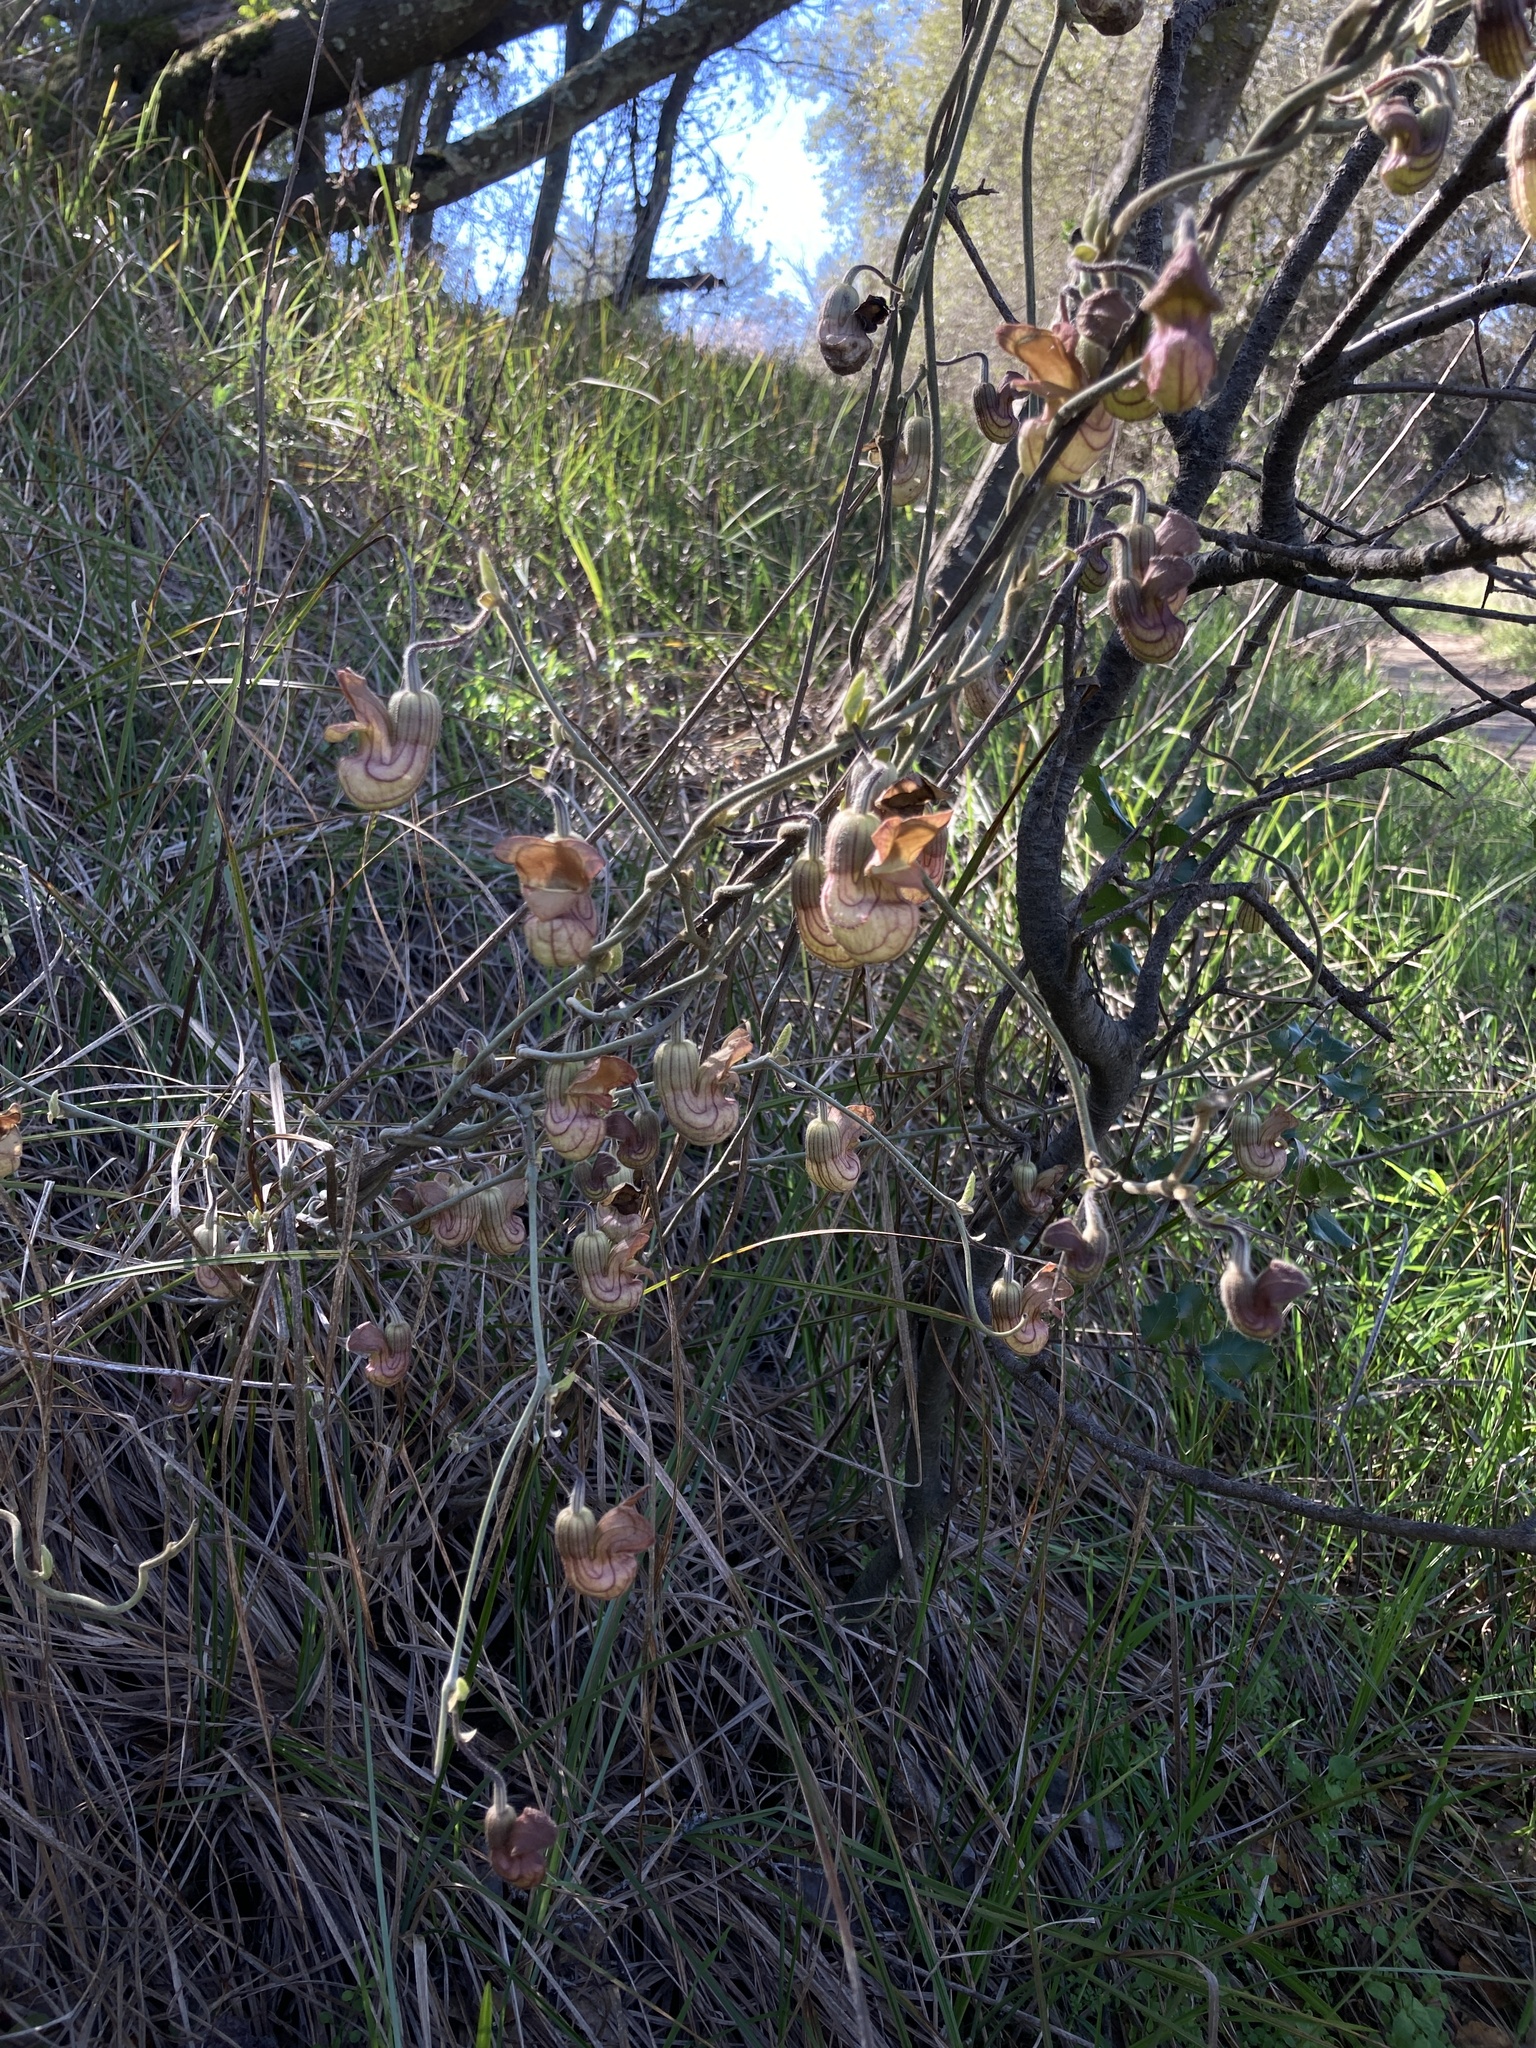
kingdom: Plantae
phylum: Tracheophyta
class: Magnoliopsida
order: Piperales
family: Aristolochiaceae
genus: Isotrema
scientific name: Isotrema californicum
